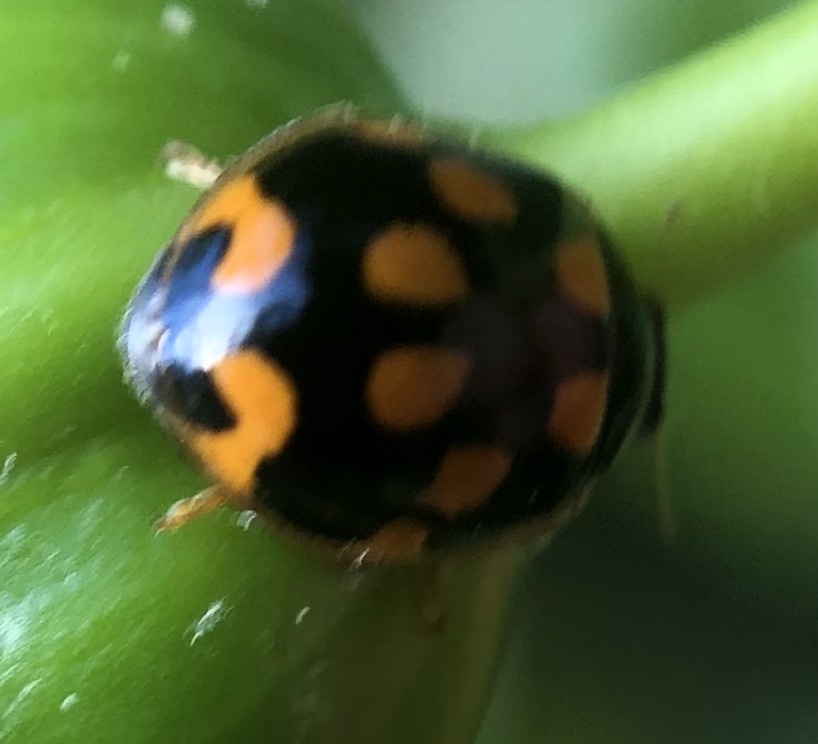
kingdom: Animalia
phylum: Arthropoda
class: Insecta
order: Coleoptera
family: Coccinellidae
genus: Propylaea
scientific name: Propylaea quatuordecimpunctata
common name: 14-spotted ladybird beetle
